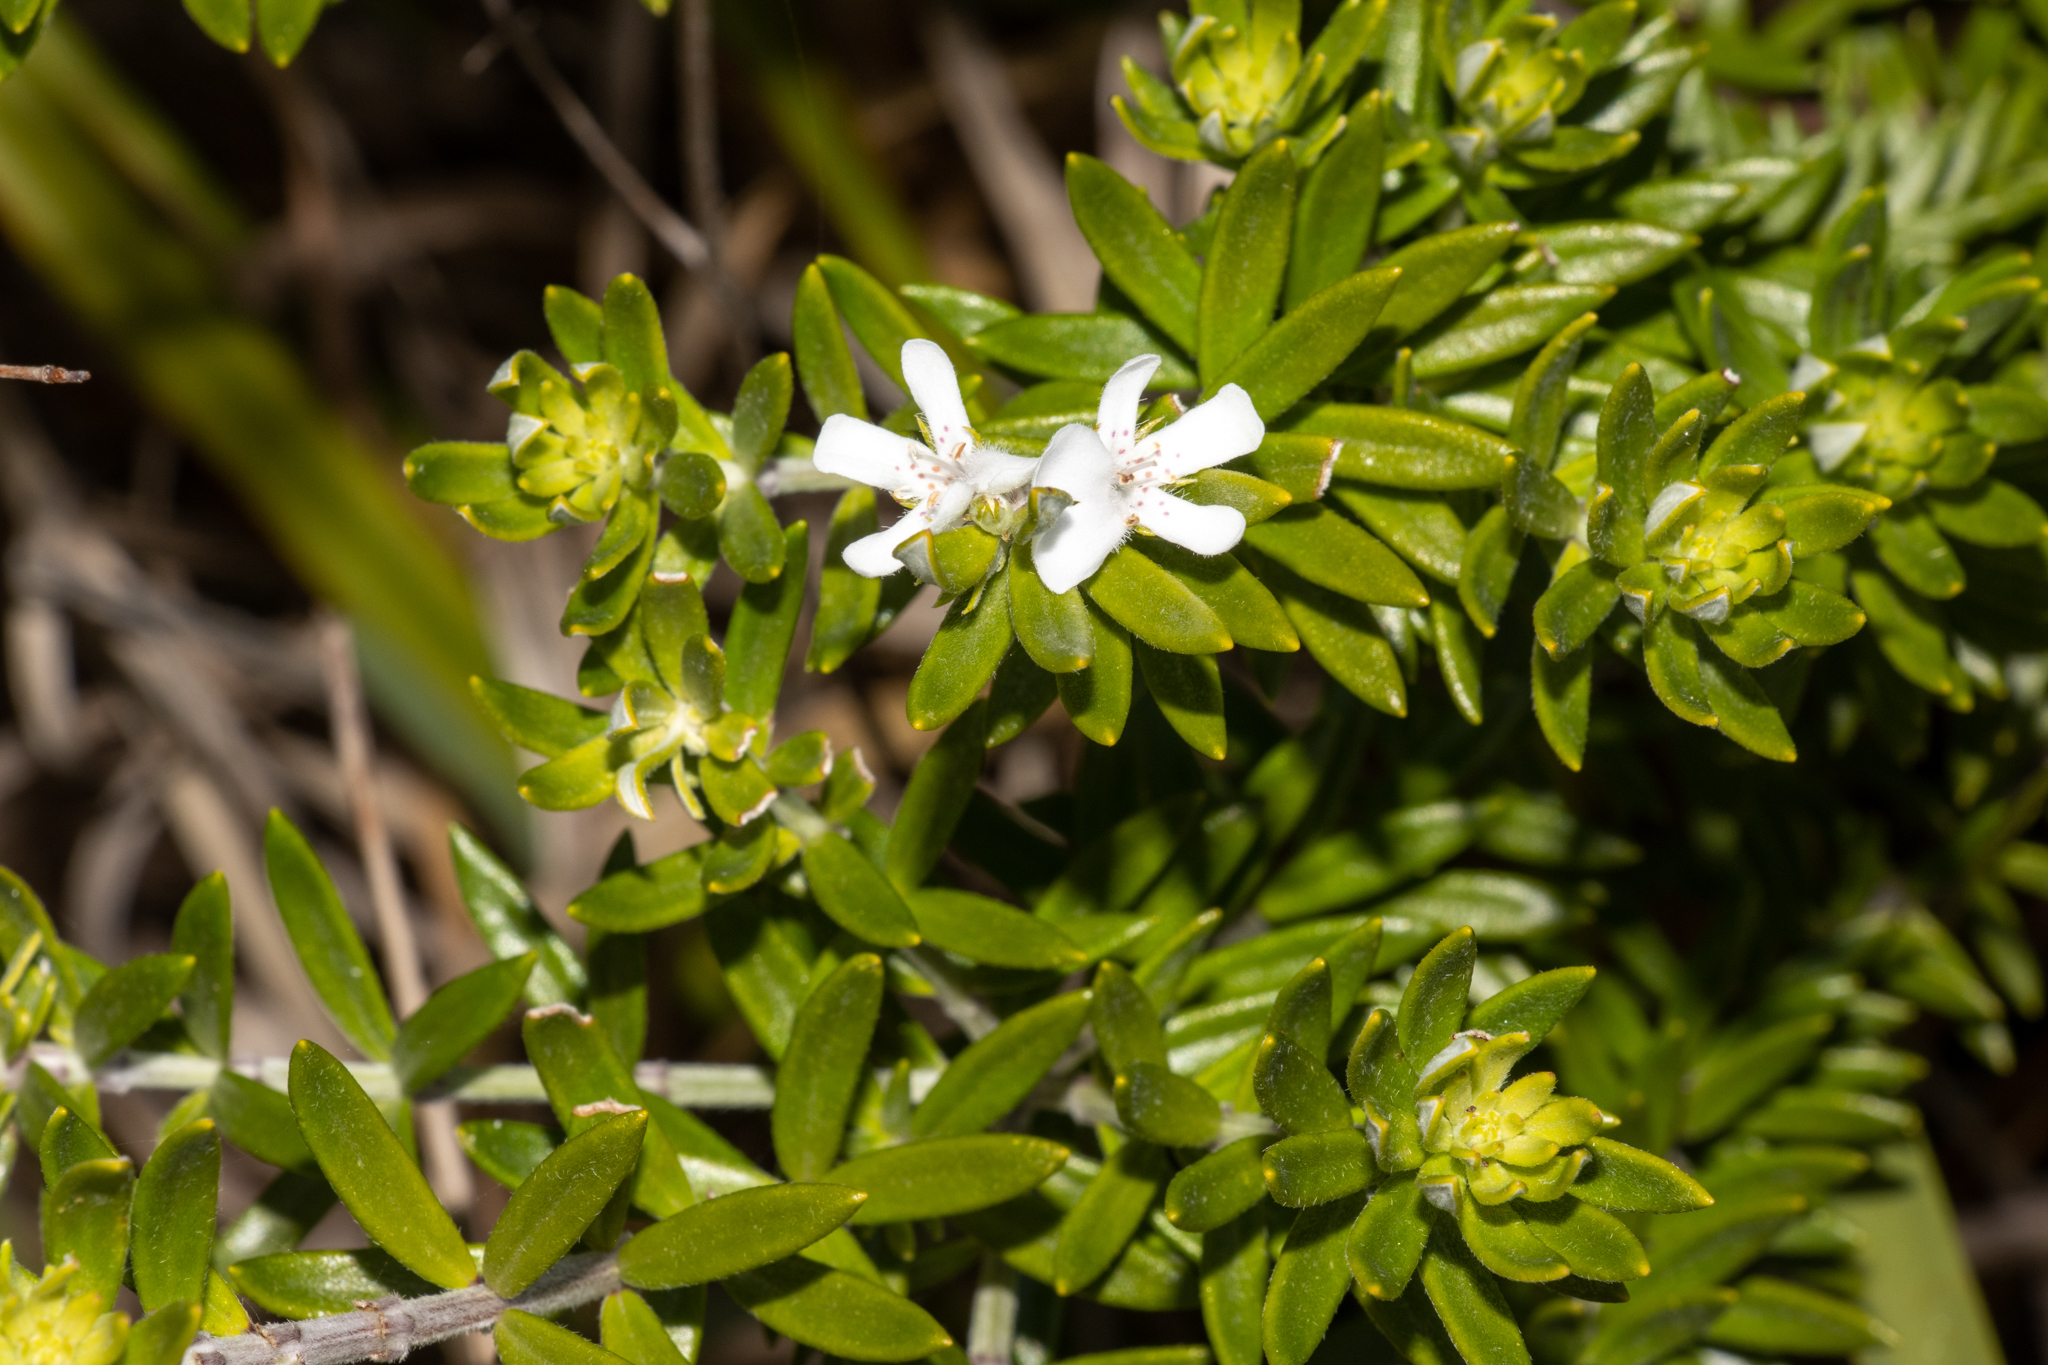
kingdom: Plantae
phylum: Tracheophyta
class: Magnoliopsida
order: Lamiales
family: Lamiaceae
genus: Westringia
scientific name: Westringia fruticosa
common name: Coastal-rosemary
